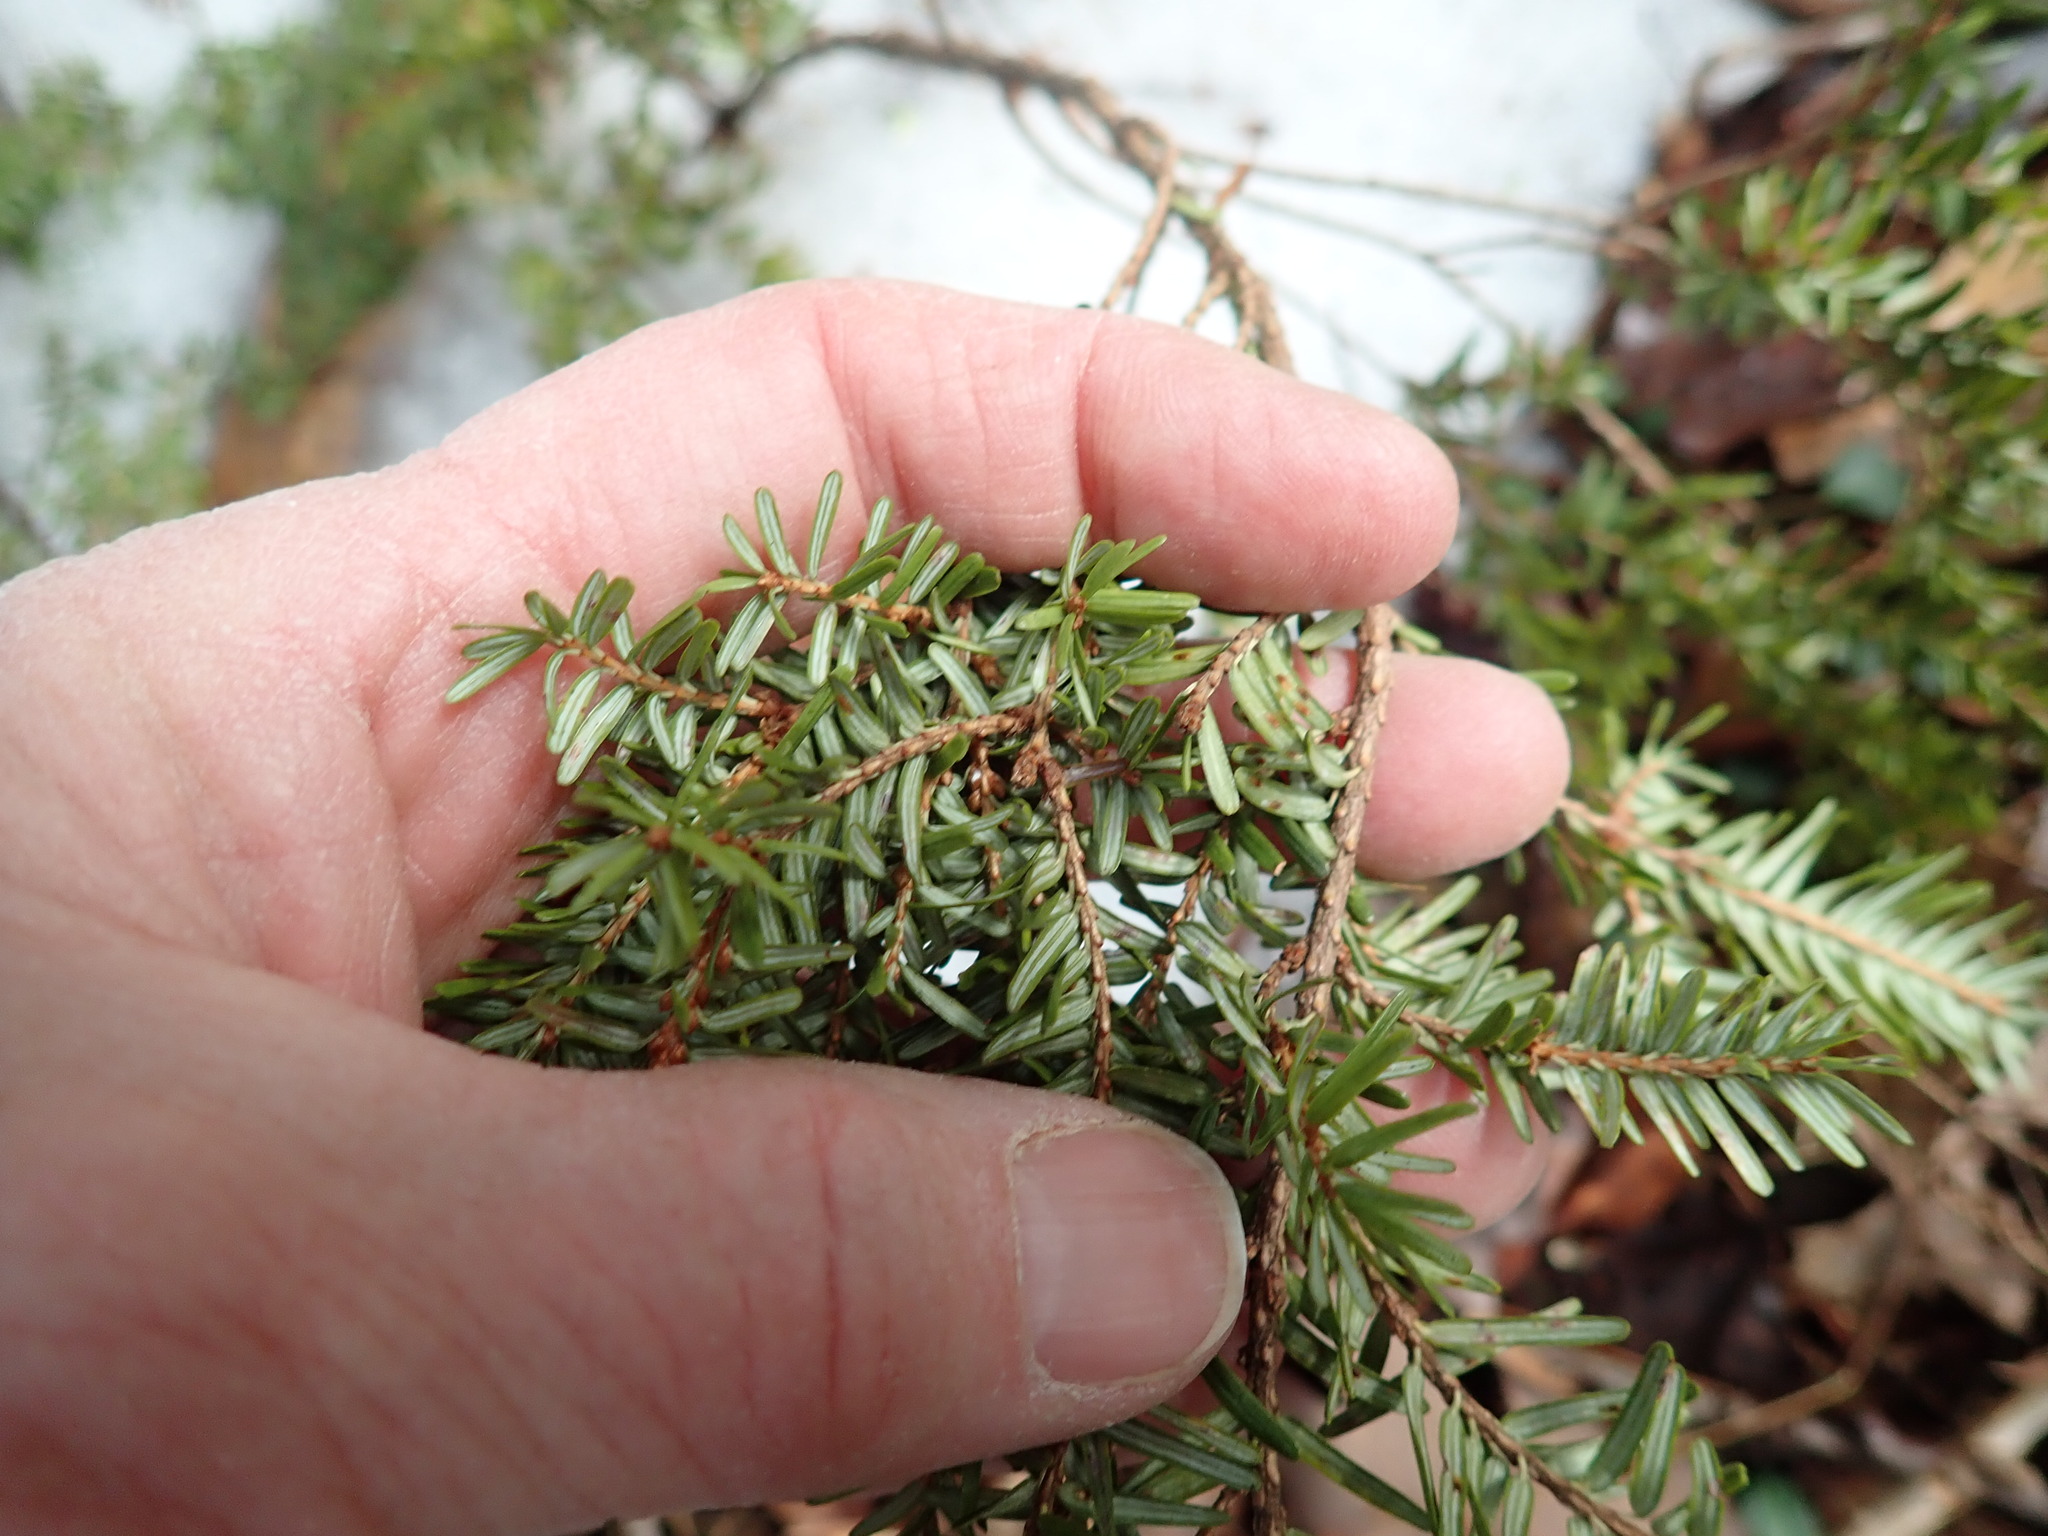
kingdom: Plantae
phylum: Tracheophyta
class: Pinopsida
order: Pinales
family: Pinaceae
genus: Tsuga
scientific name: Tsuga canadensis
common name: Eastern hemlock
